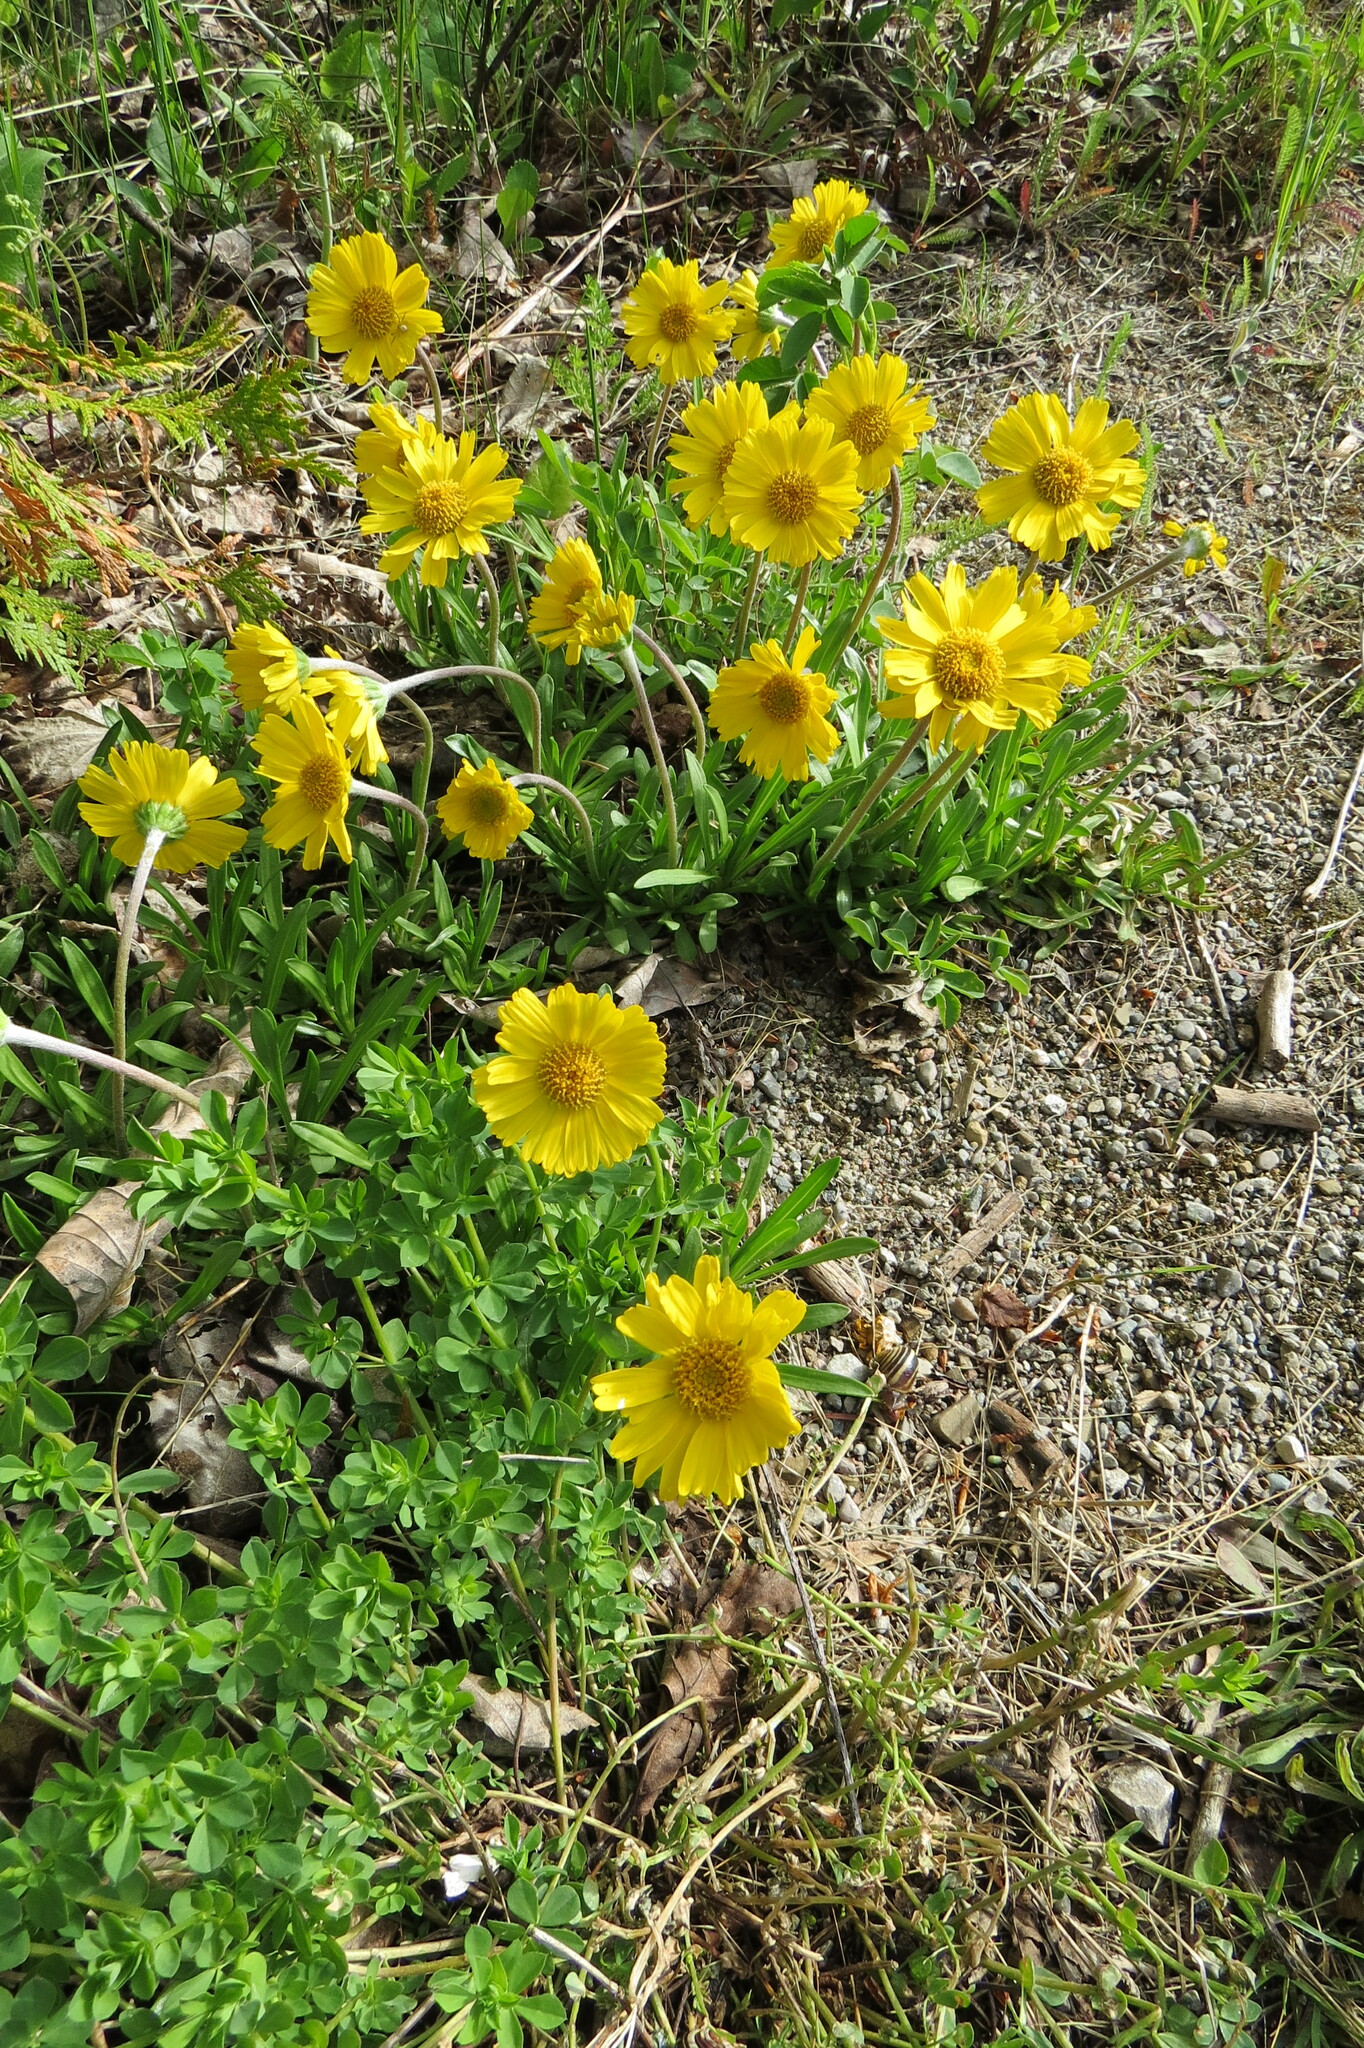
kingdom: Plantae
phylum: Tracheophyta
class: Magnoliopsida
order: Asterales
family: Asteraceae
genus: Tetraneuris
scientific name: Tetraneuris herbacea
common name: Lakeside daisy
